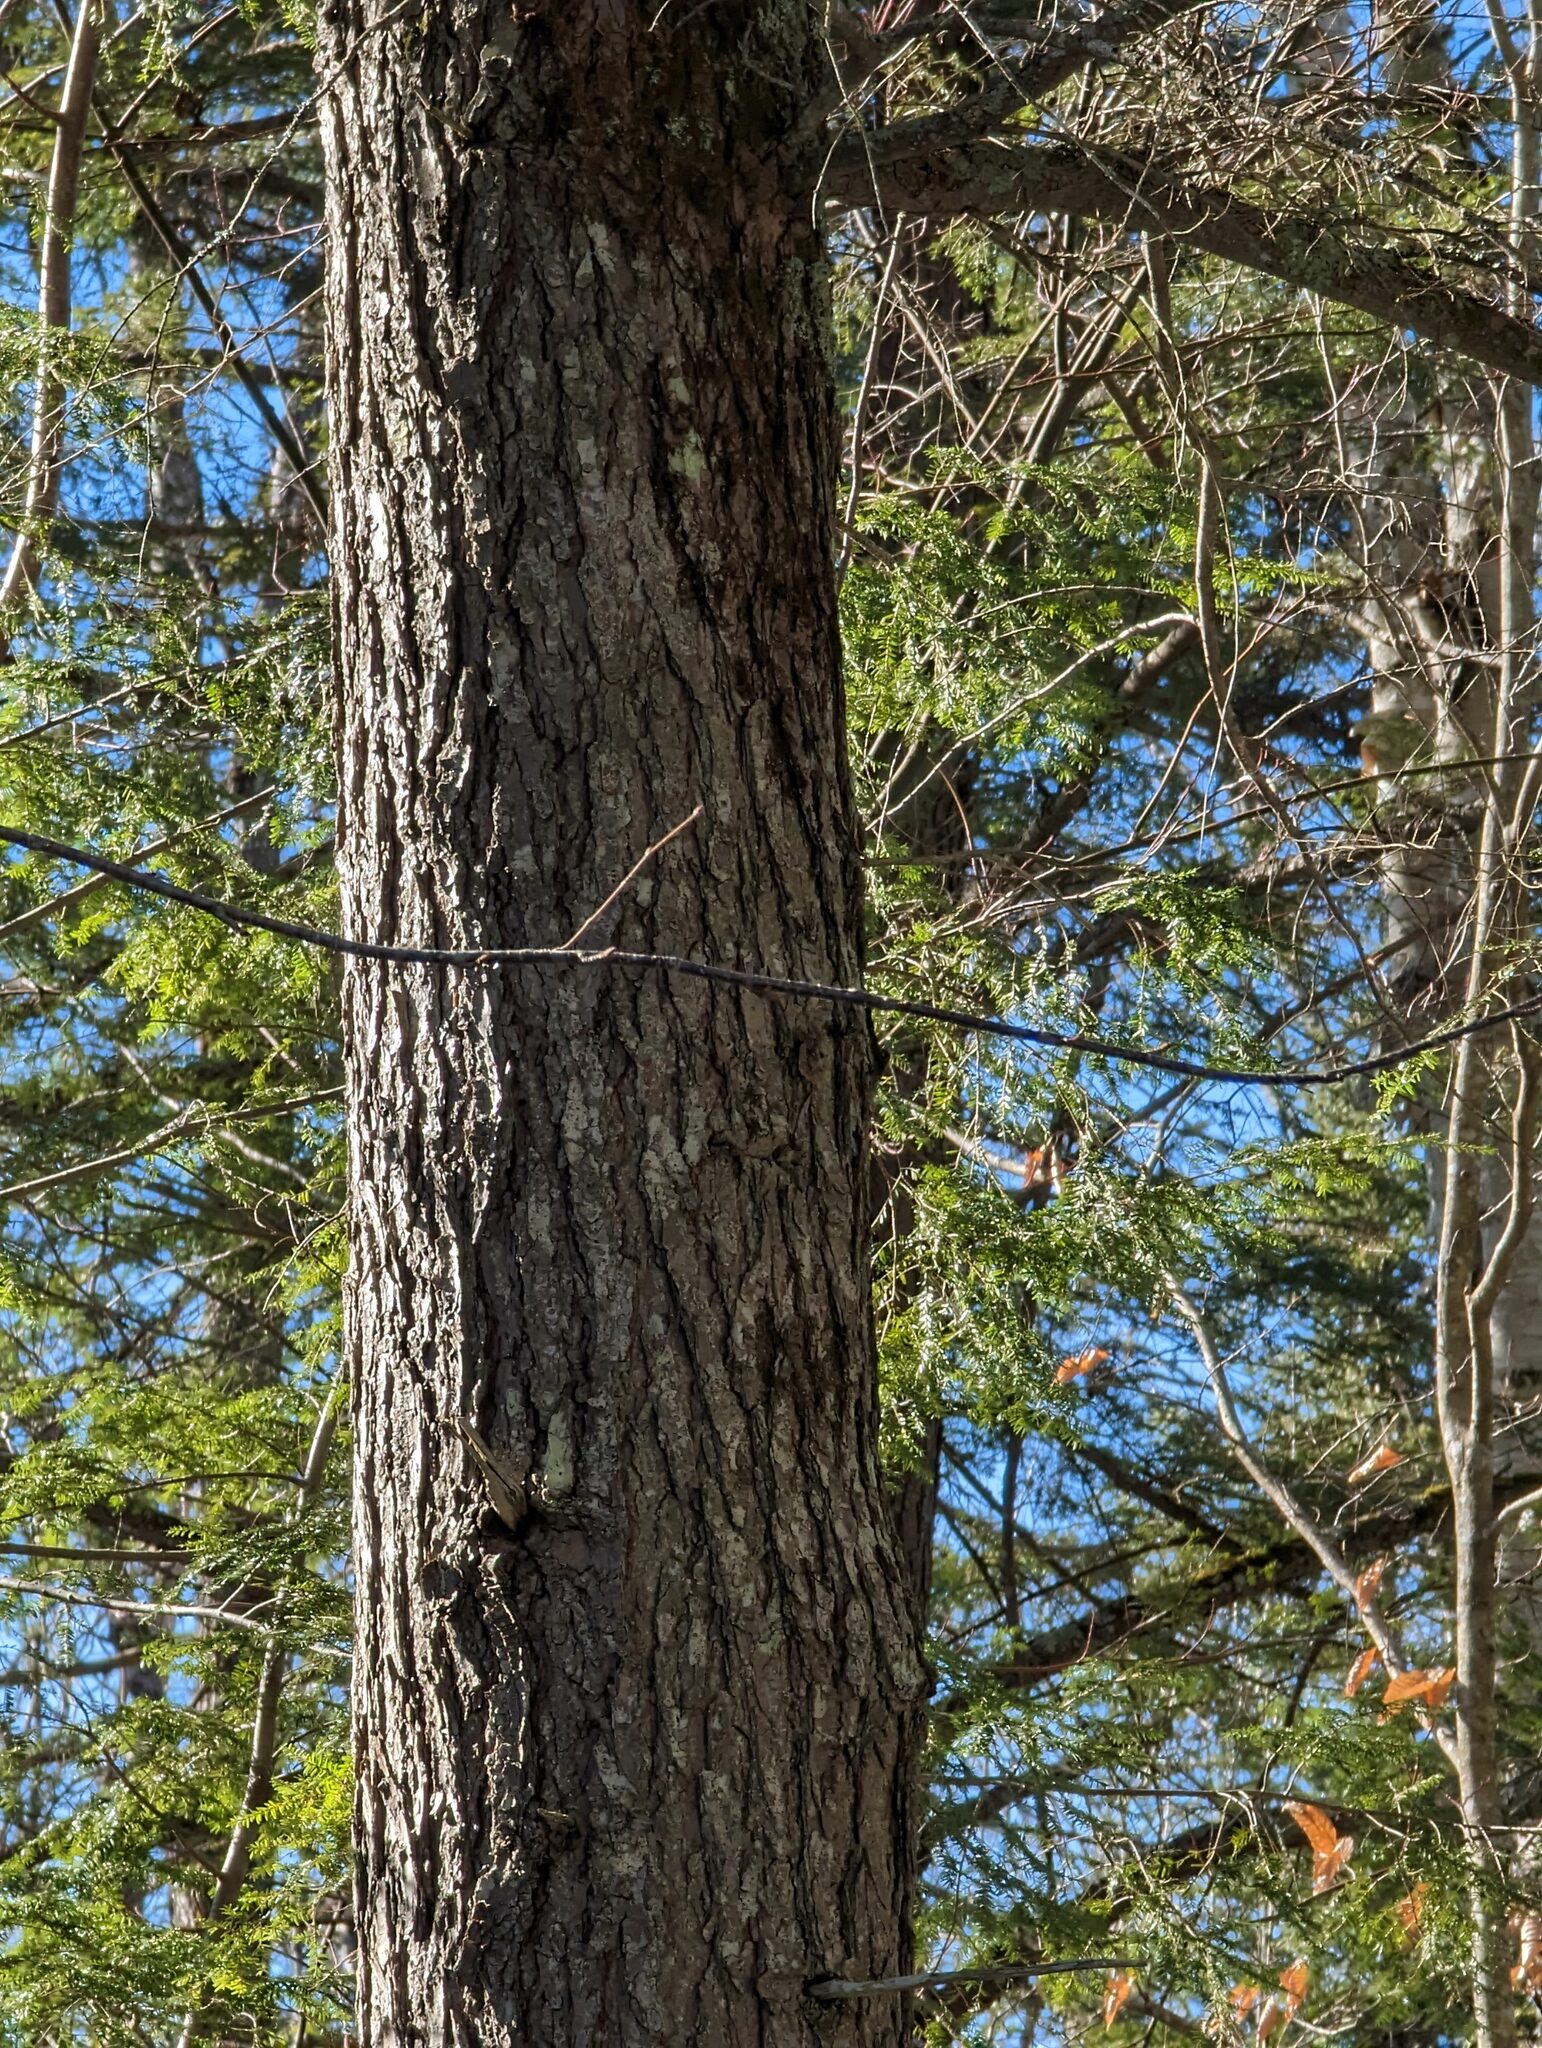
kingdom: Plantae
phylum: Tracheophyta
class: Pinopsida
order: Pinales
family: Pinaceae
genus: Tsuga
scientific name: Tsuga canadensis
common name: Eastern hemlock
